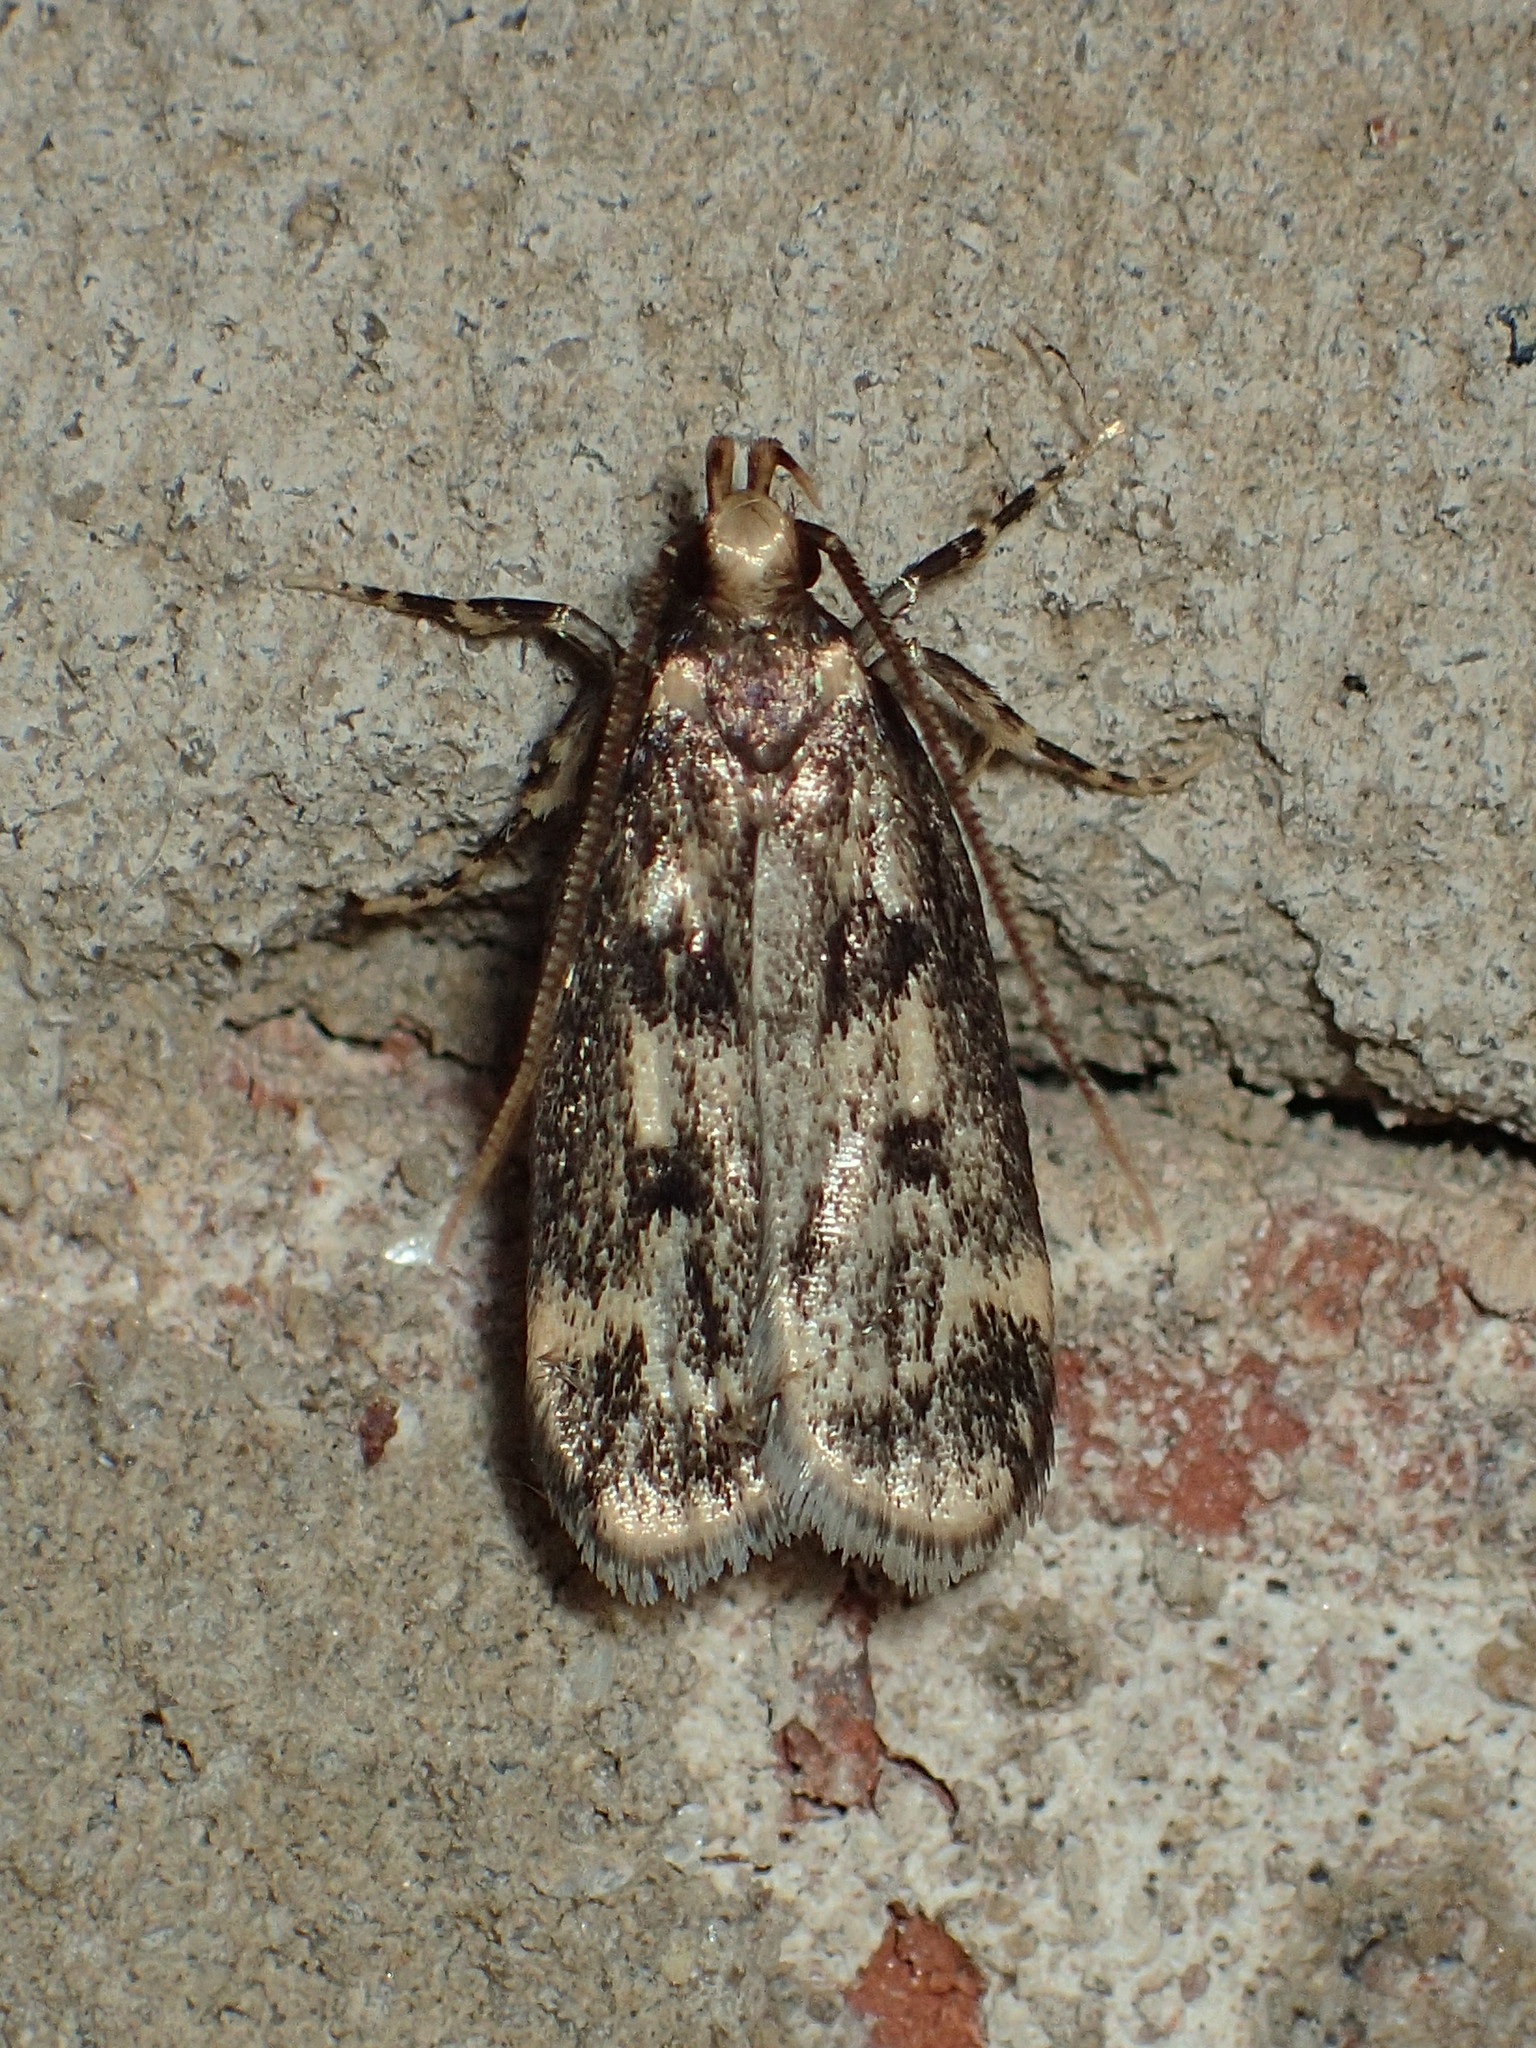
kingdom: Animalia
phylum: Arthropoda
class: Insecta
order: Lepidoptera
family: Lecithoceridae
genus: Martyringa
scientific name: Martyringa latipennis
